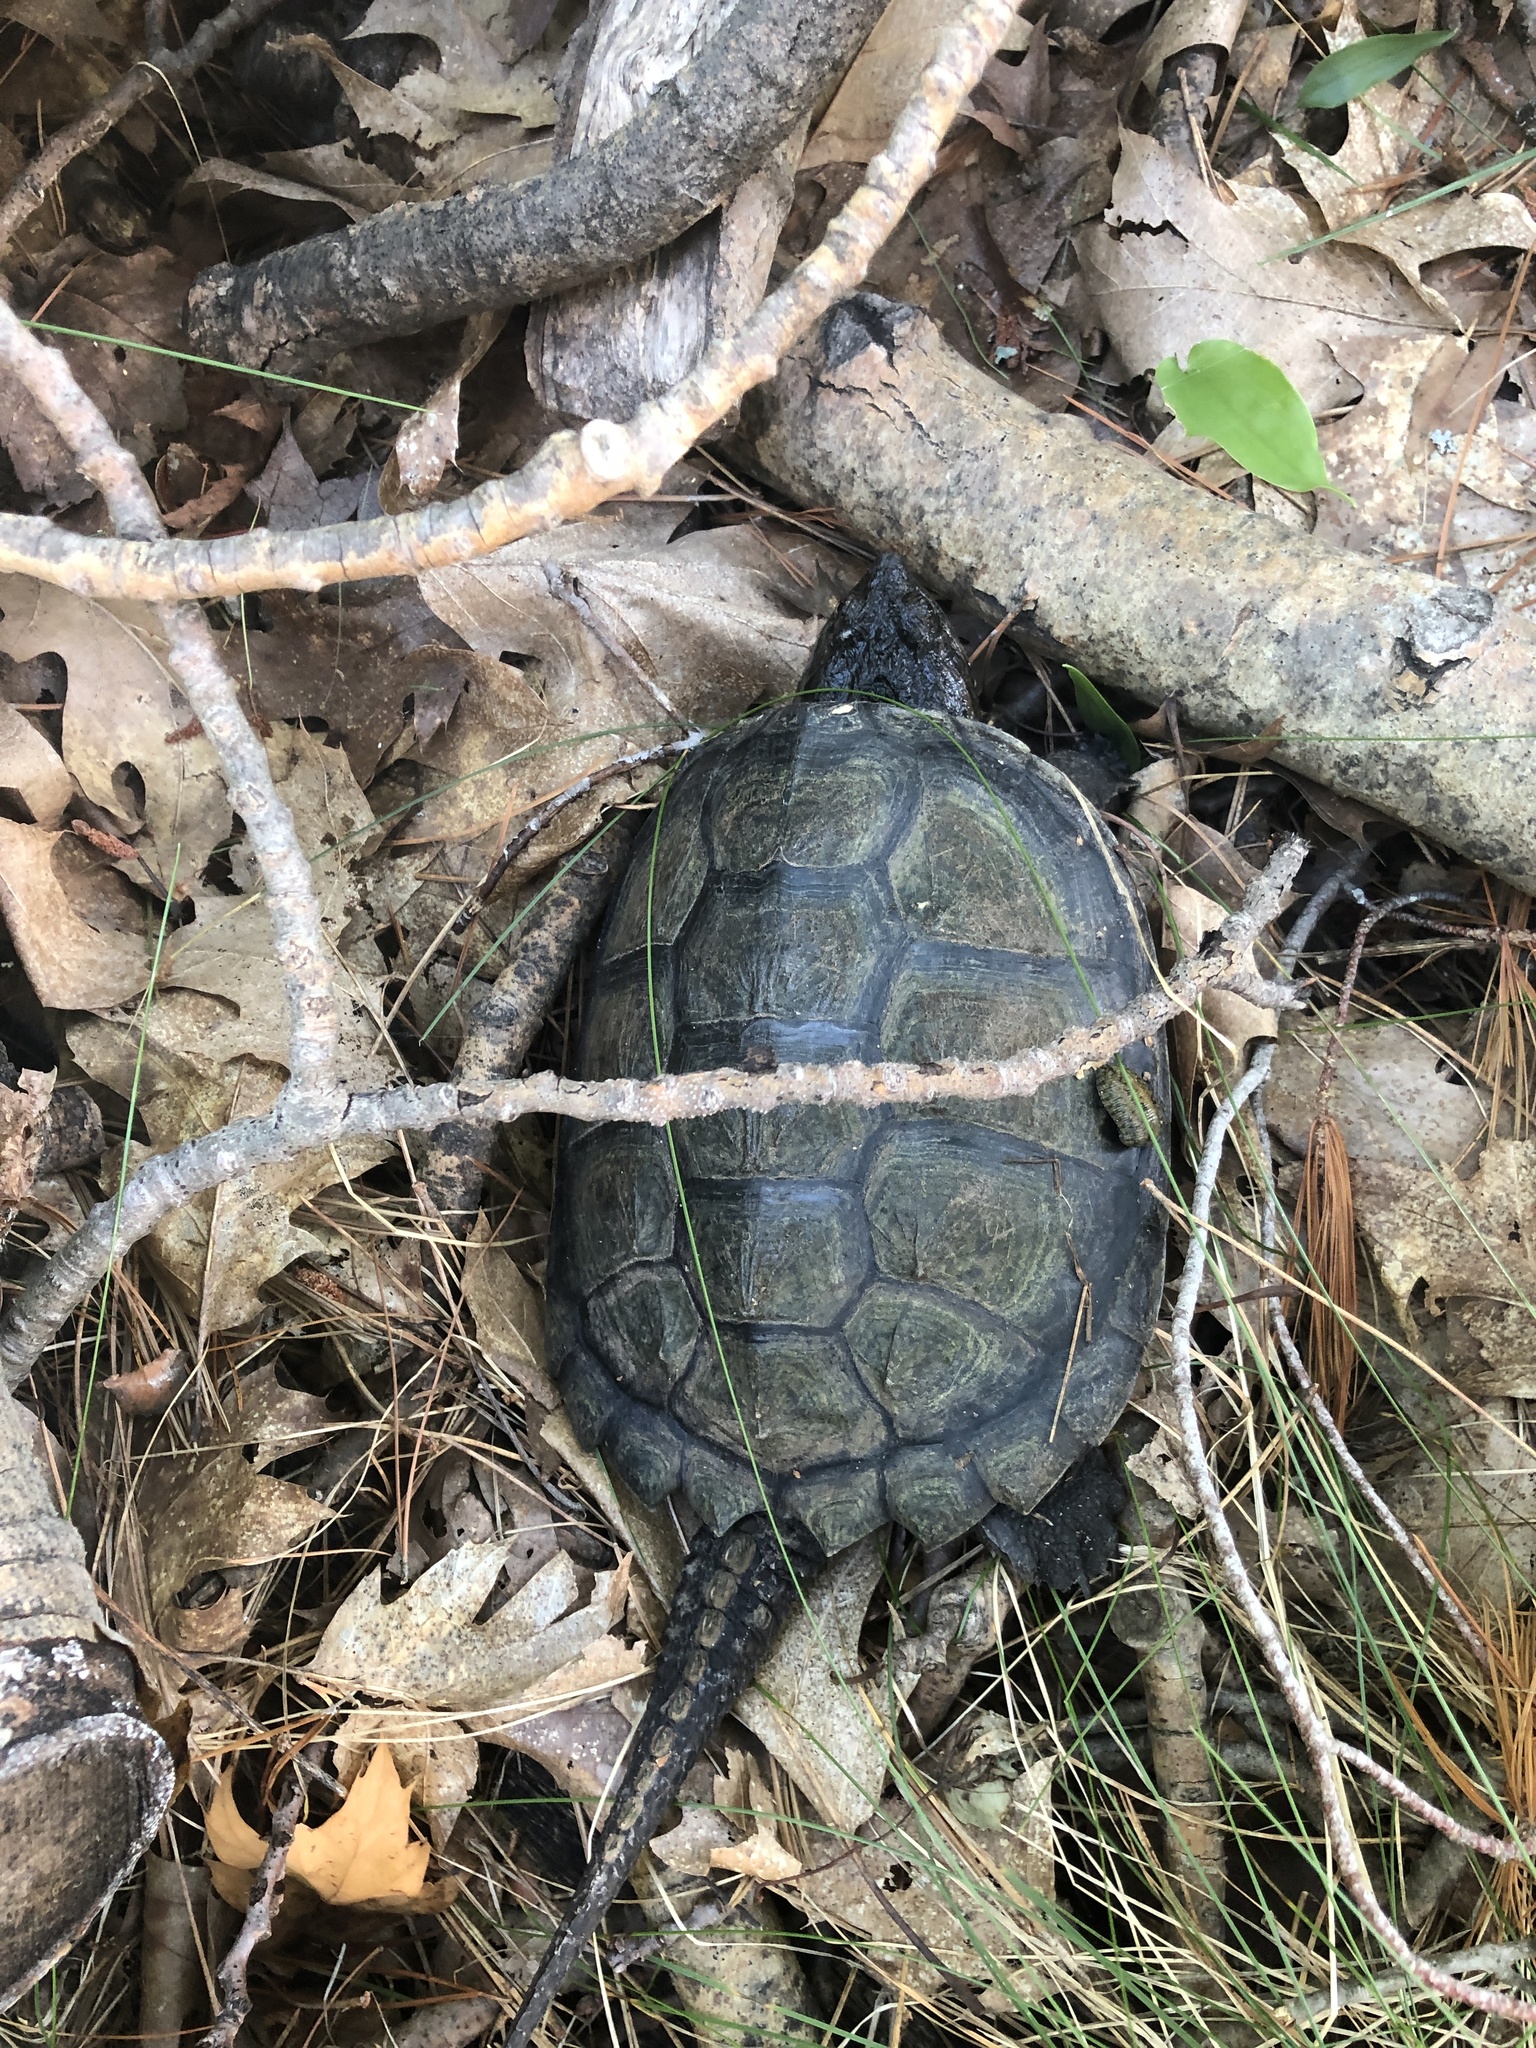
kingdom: Animalia
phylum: Chordata
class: Testudines
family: Chelydridae
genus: Chelydra
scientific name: Chelydra serpentina
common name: Common snapping turtle
